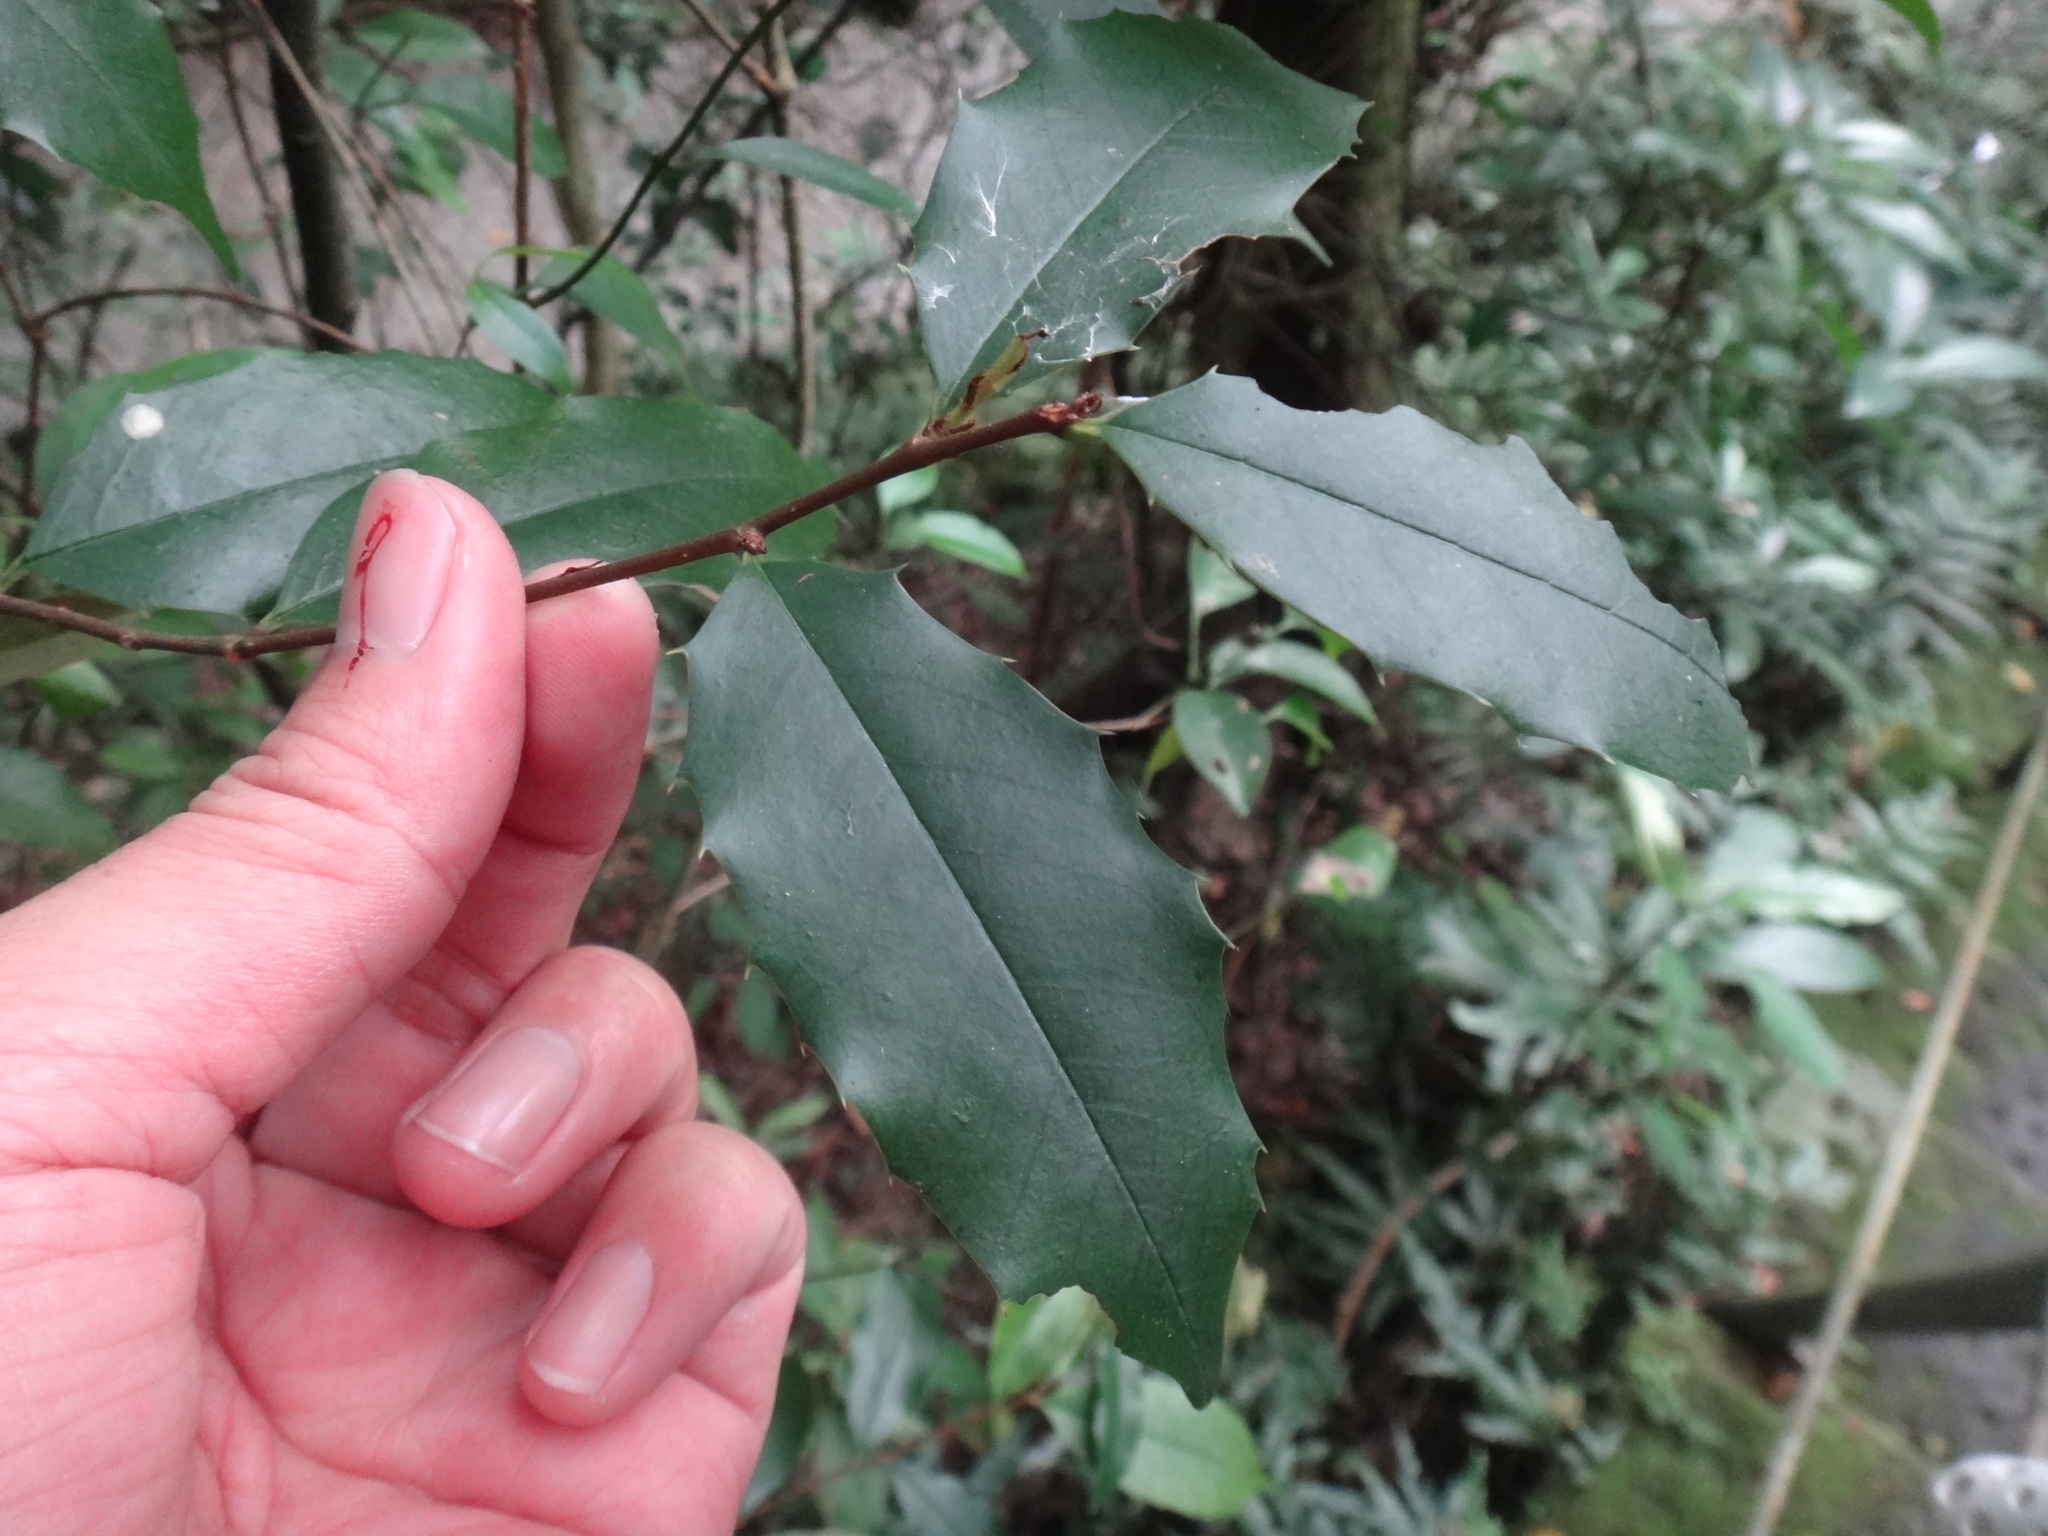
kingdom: Plantae
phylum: Tracheophyta
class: Magnoliopsida
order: Rosales
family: Rosaceae
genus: Prunus
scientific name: Prunus spinulosa
